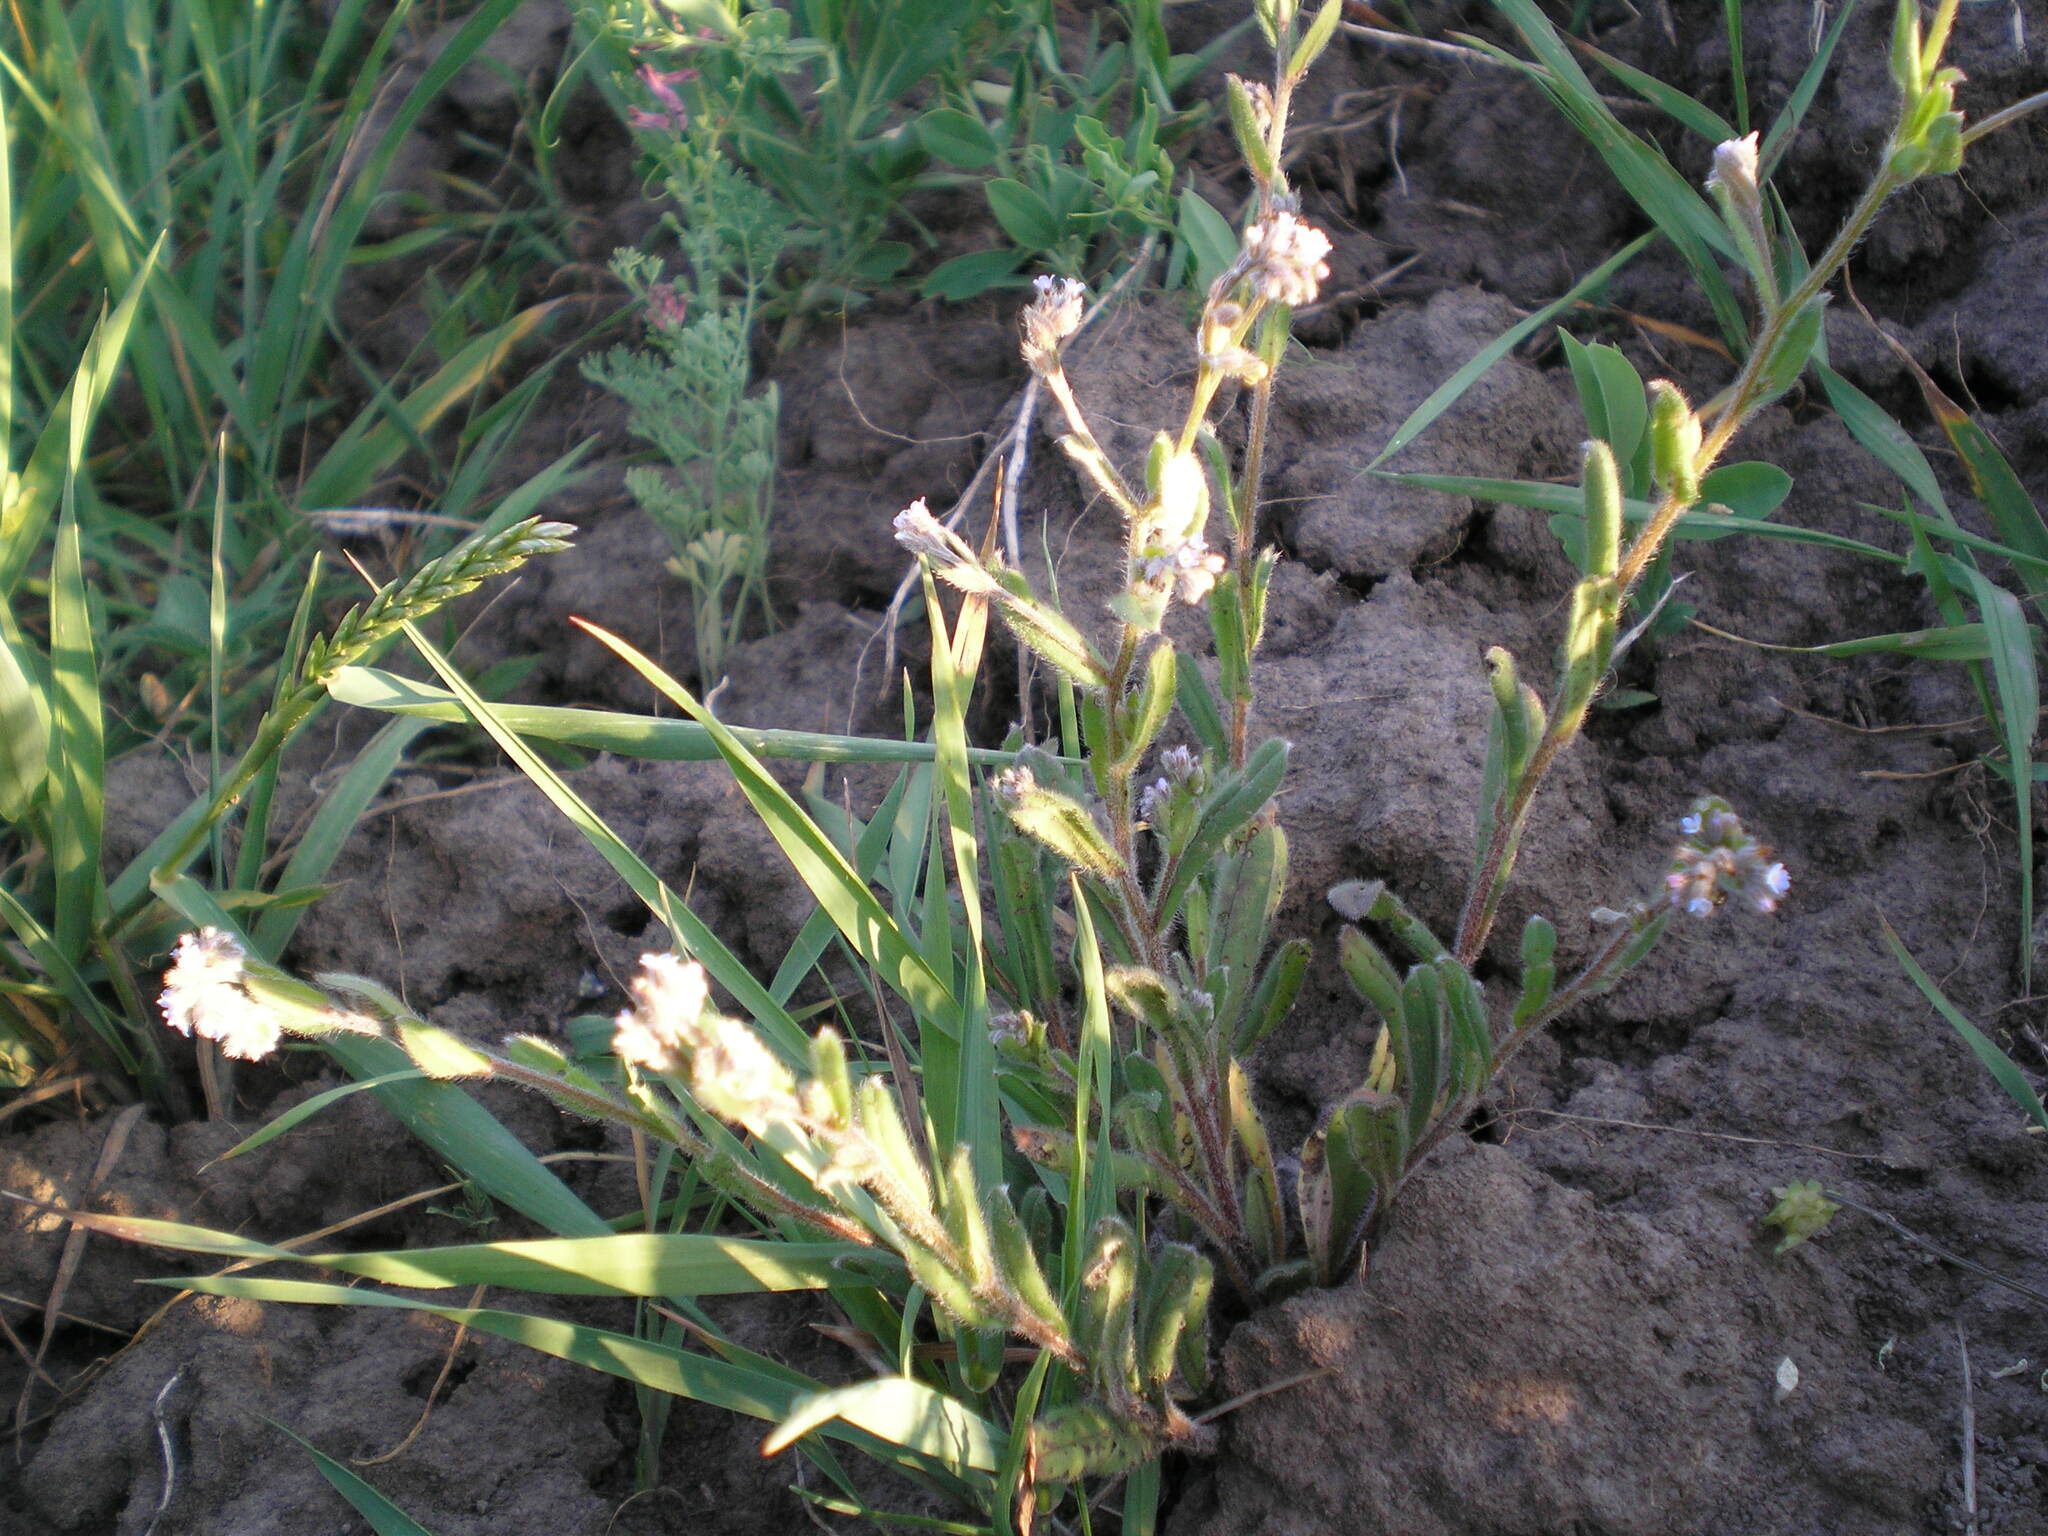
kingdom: Plantae
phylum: Tracheophyta
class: Magnoliopsida
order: Ranunculales
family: Ranunculaceae
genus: Delphinium
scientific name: Delphinium consolida
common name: Branching larkspur
